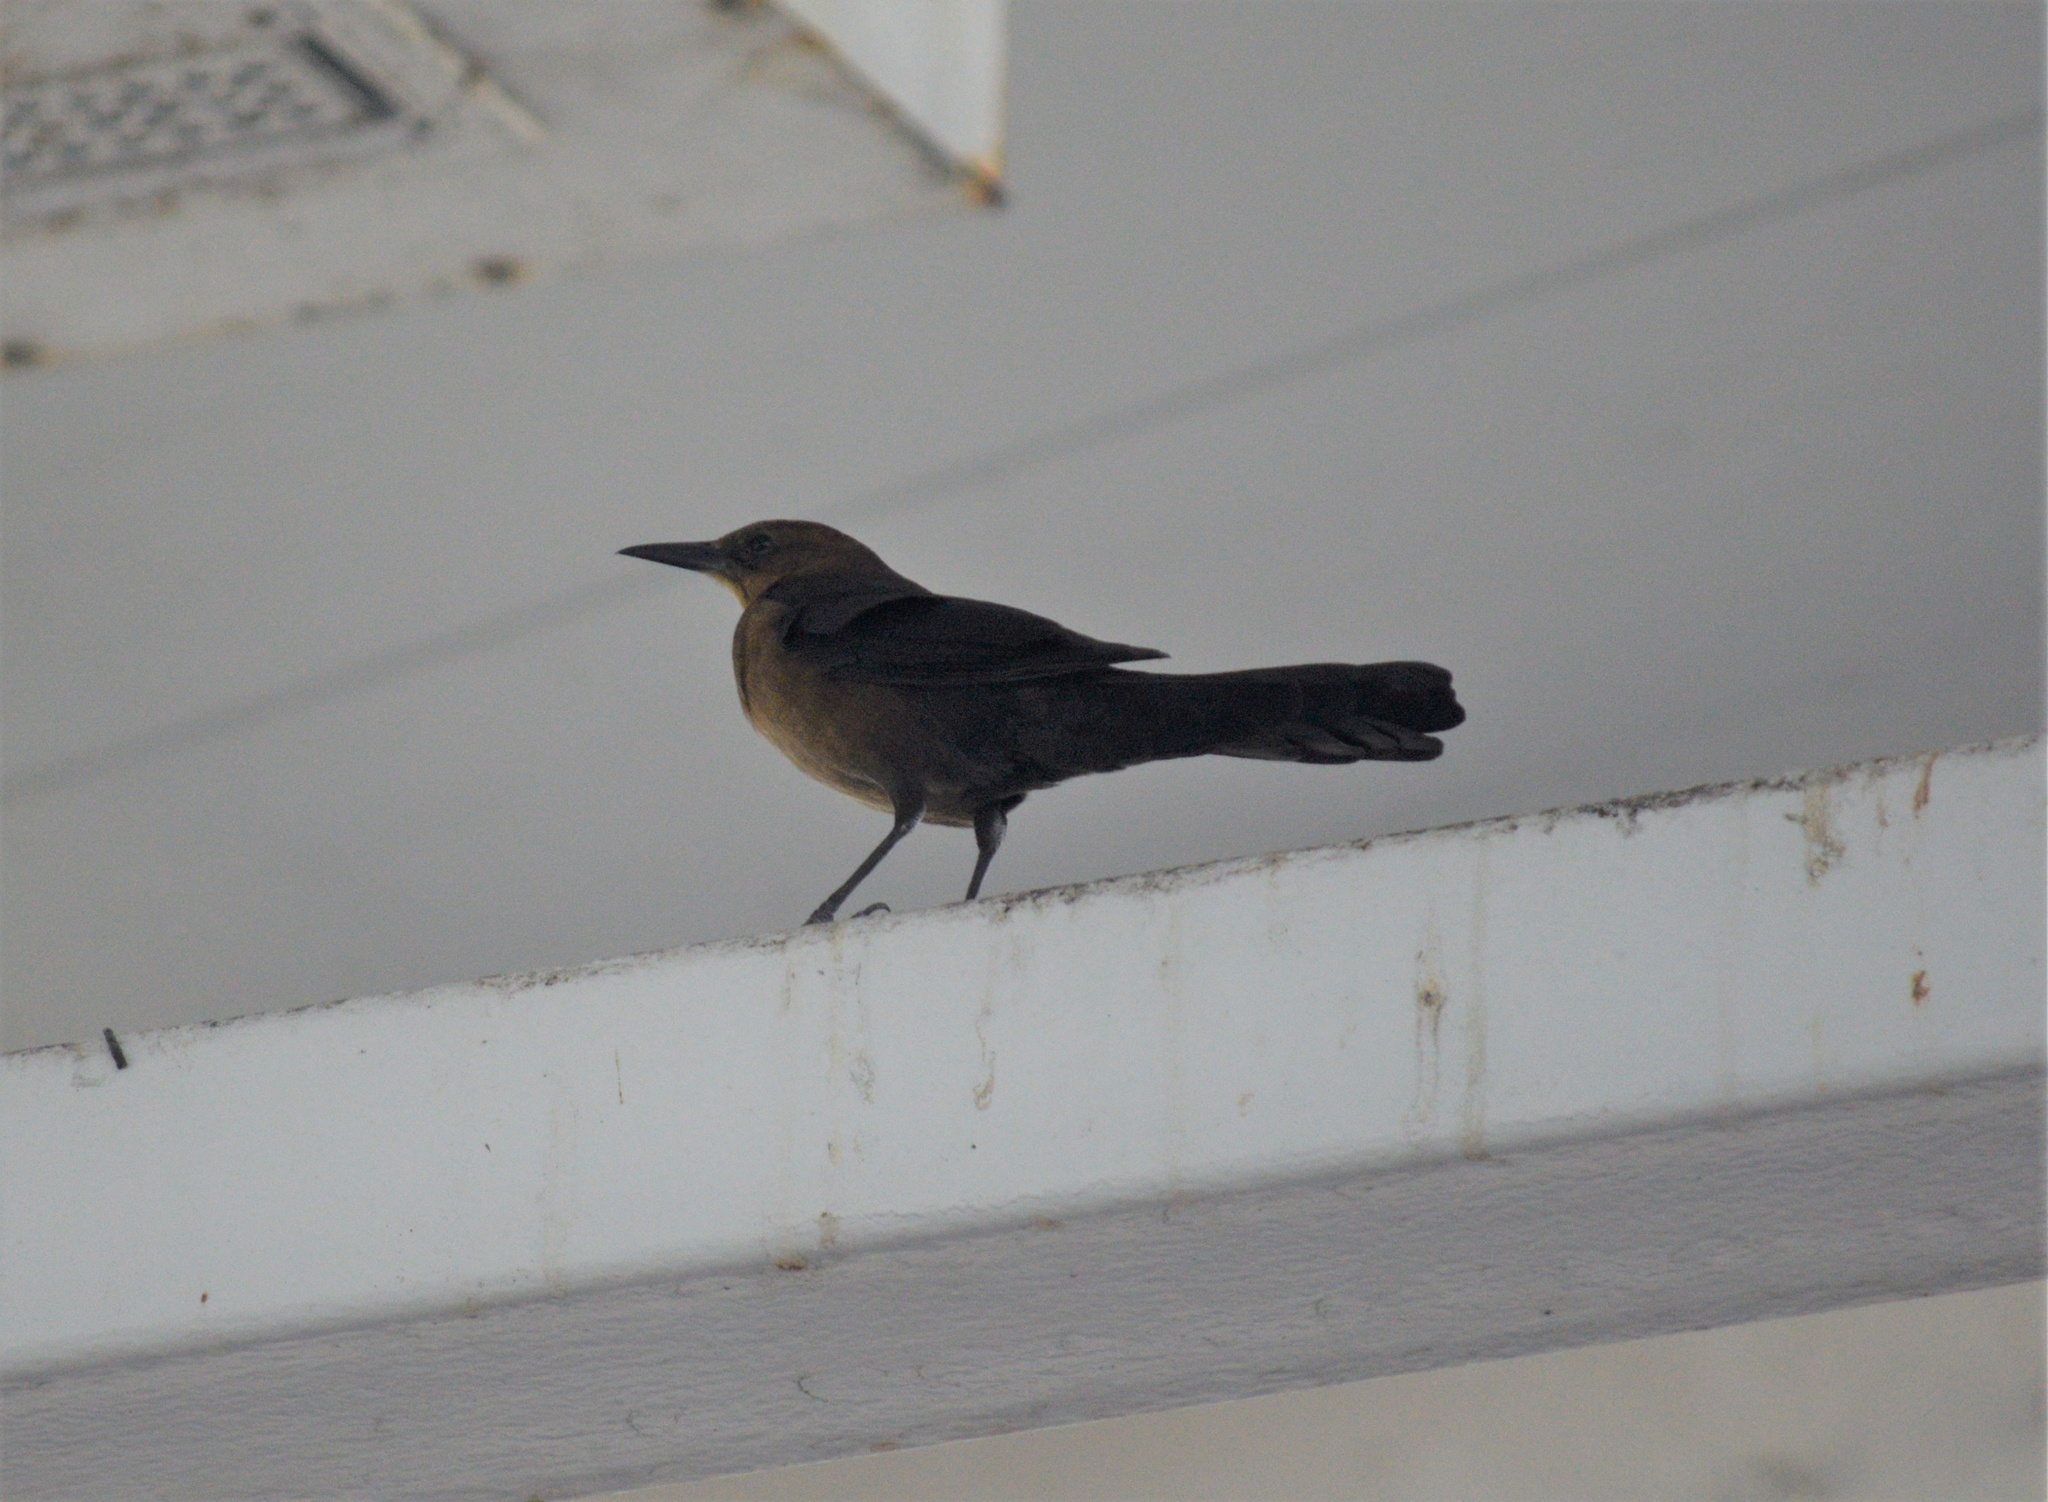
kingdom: Animalia
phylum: Chordata
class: Aves
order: Passeriformes
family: Icteridae
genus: Quiscalus
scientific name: Quiscalus major
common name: Boat-tailed grackle
